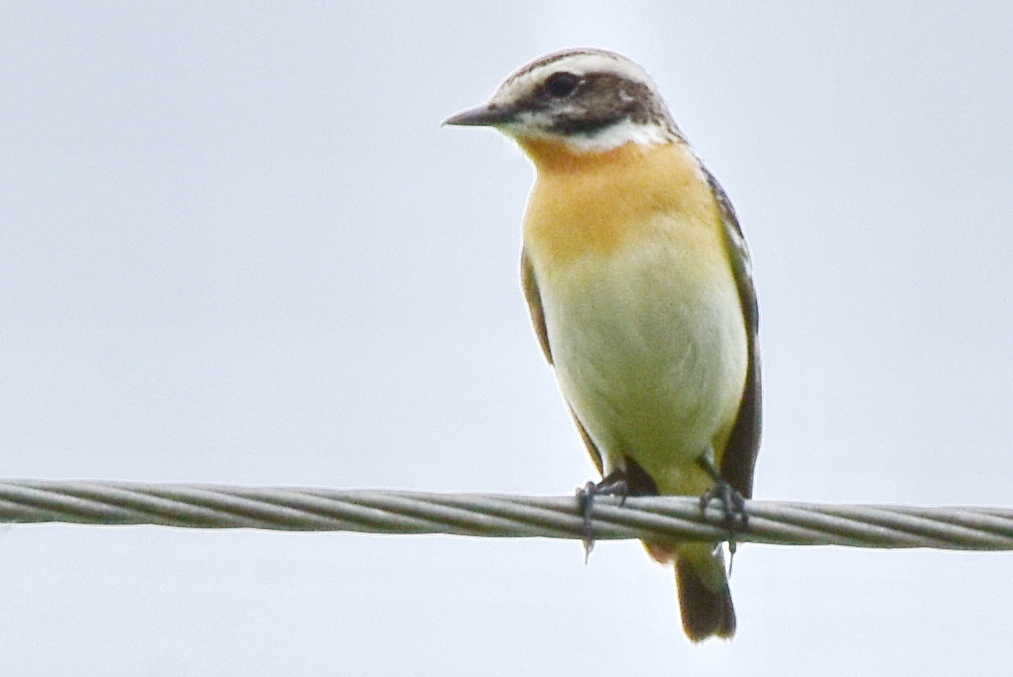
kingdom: Animalia
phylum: Chordata
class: Aves
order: Passeriformes
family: Muscicapidae
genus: Saxicola
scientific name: Saxicola rubetra
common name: Whinchat
